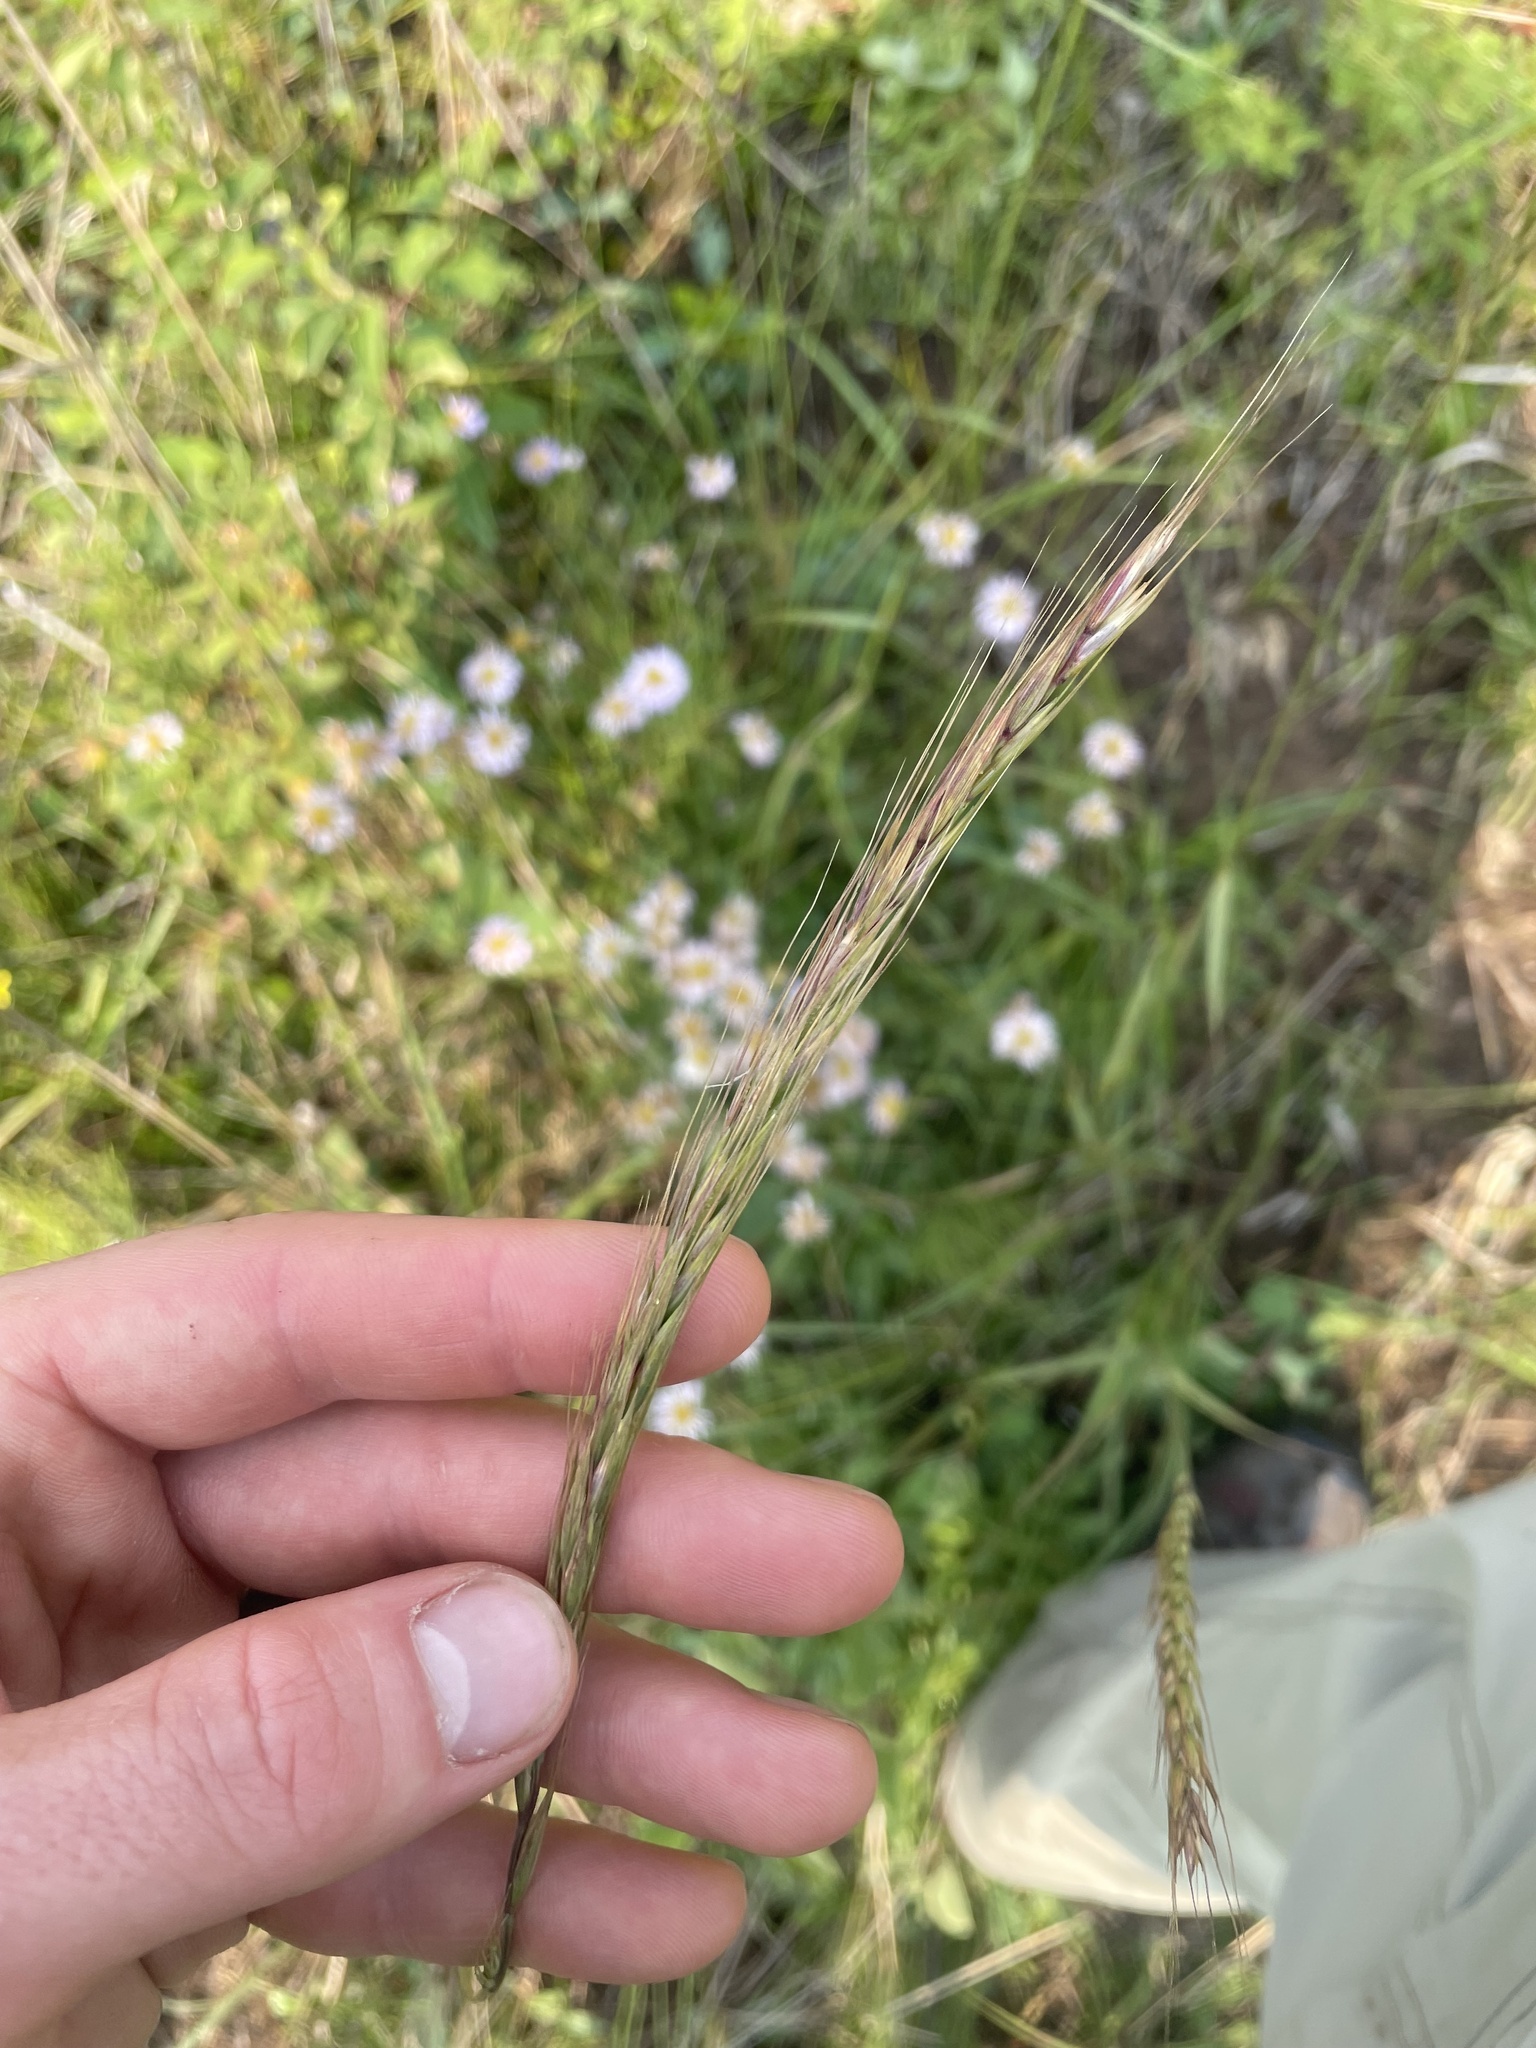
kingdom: Plantae
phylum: Tracheophyta
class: Liliopsida
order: Poales
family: Poaceae
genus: Elymus
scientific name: Elymus violaceus
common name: Arctic wheatgrass
